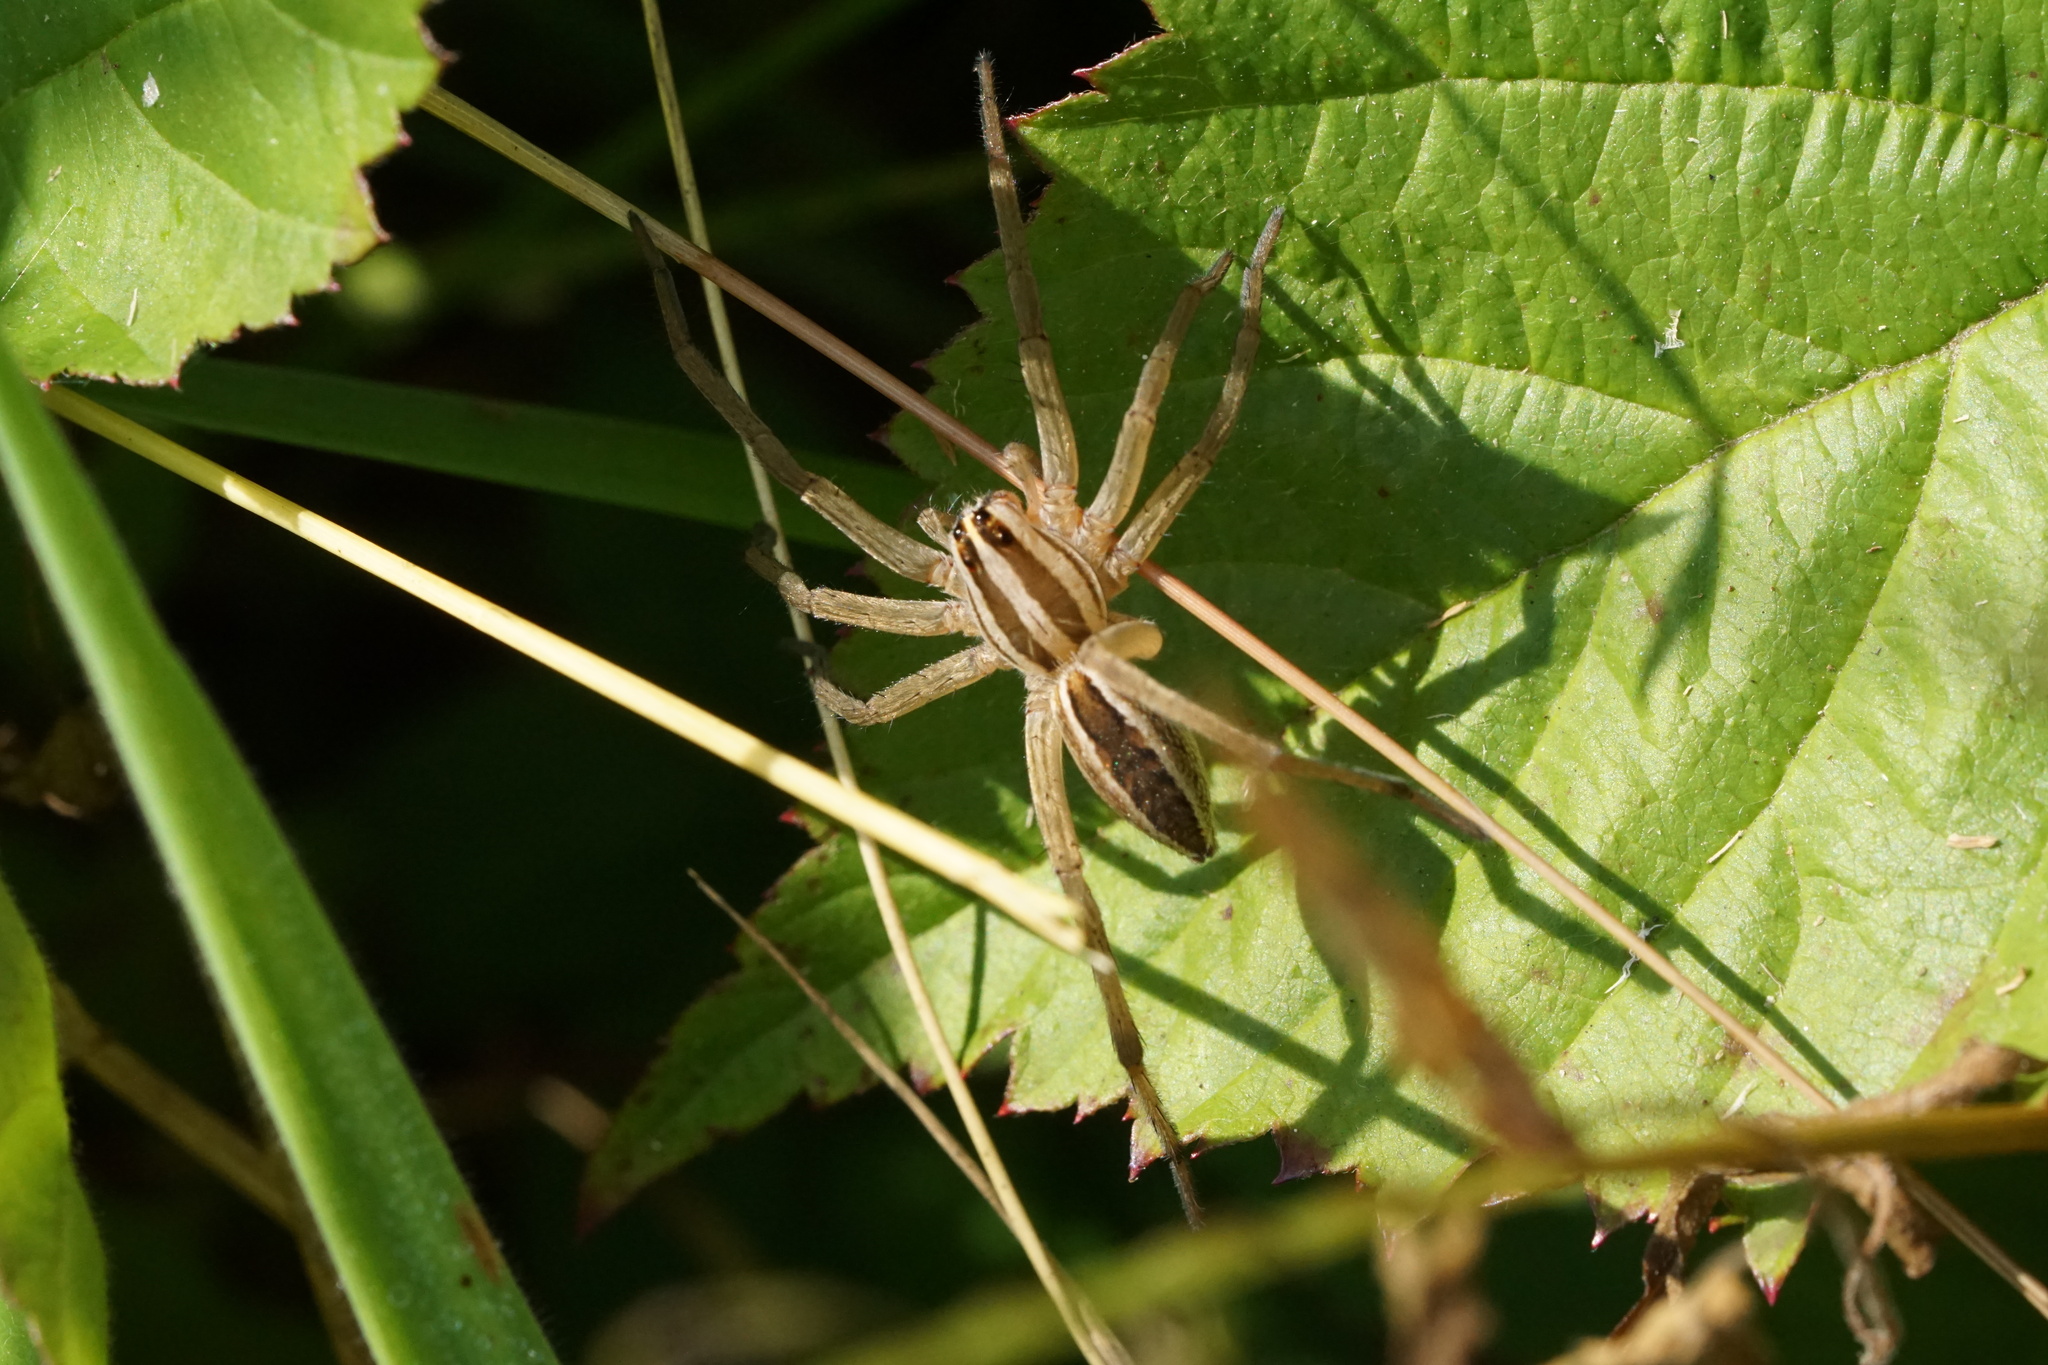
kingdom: Animalia
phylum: Arthropoda
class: Arachnida
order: Araneae
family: Lycosidae
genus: Rabidosa
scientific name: Rabidosa rabida
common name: Rabid wolf spider
